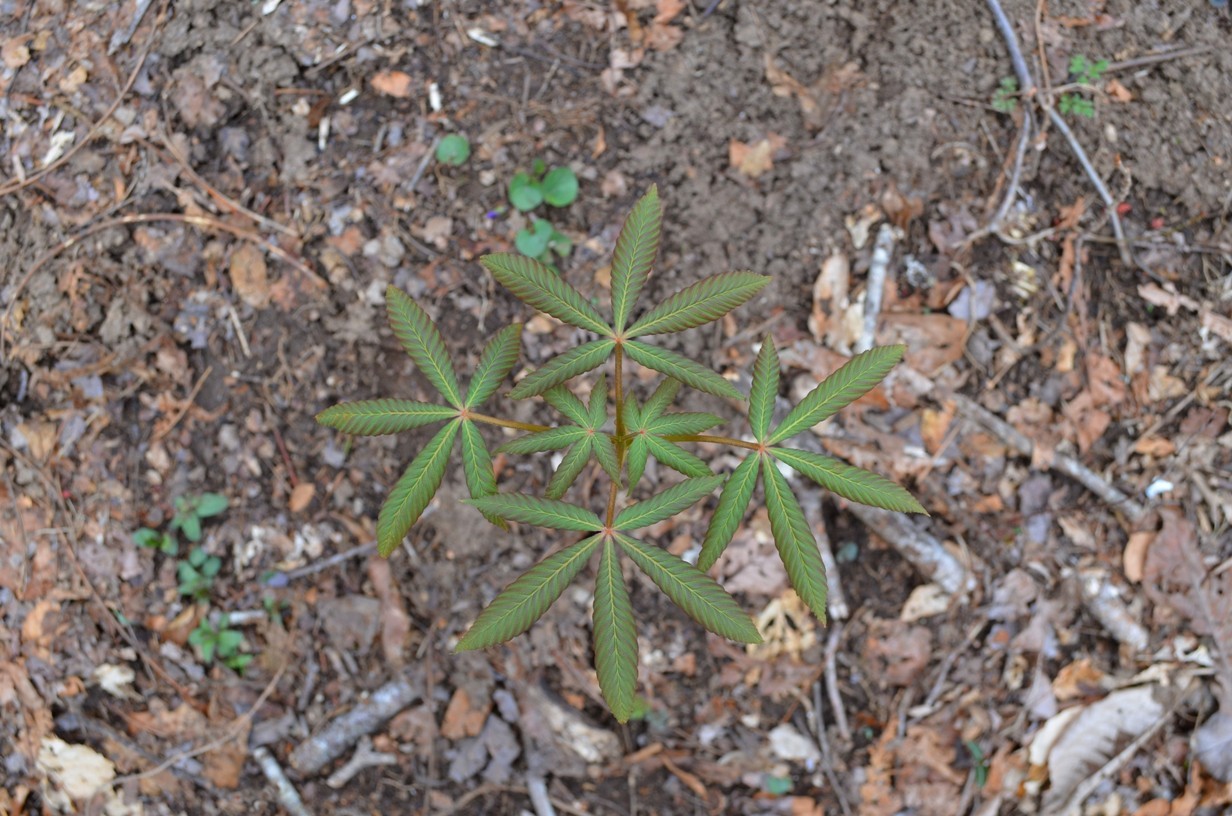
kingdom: Plantae
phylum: Tracheophyta
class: Magnoliopsida
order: Sapindales
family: Sapindaceae
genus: Aesculus
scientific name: Aesculus flava
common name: Yellow buckeye
